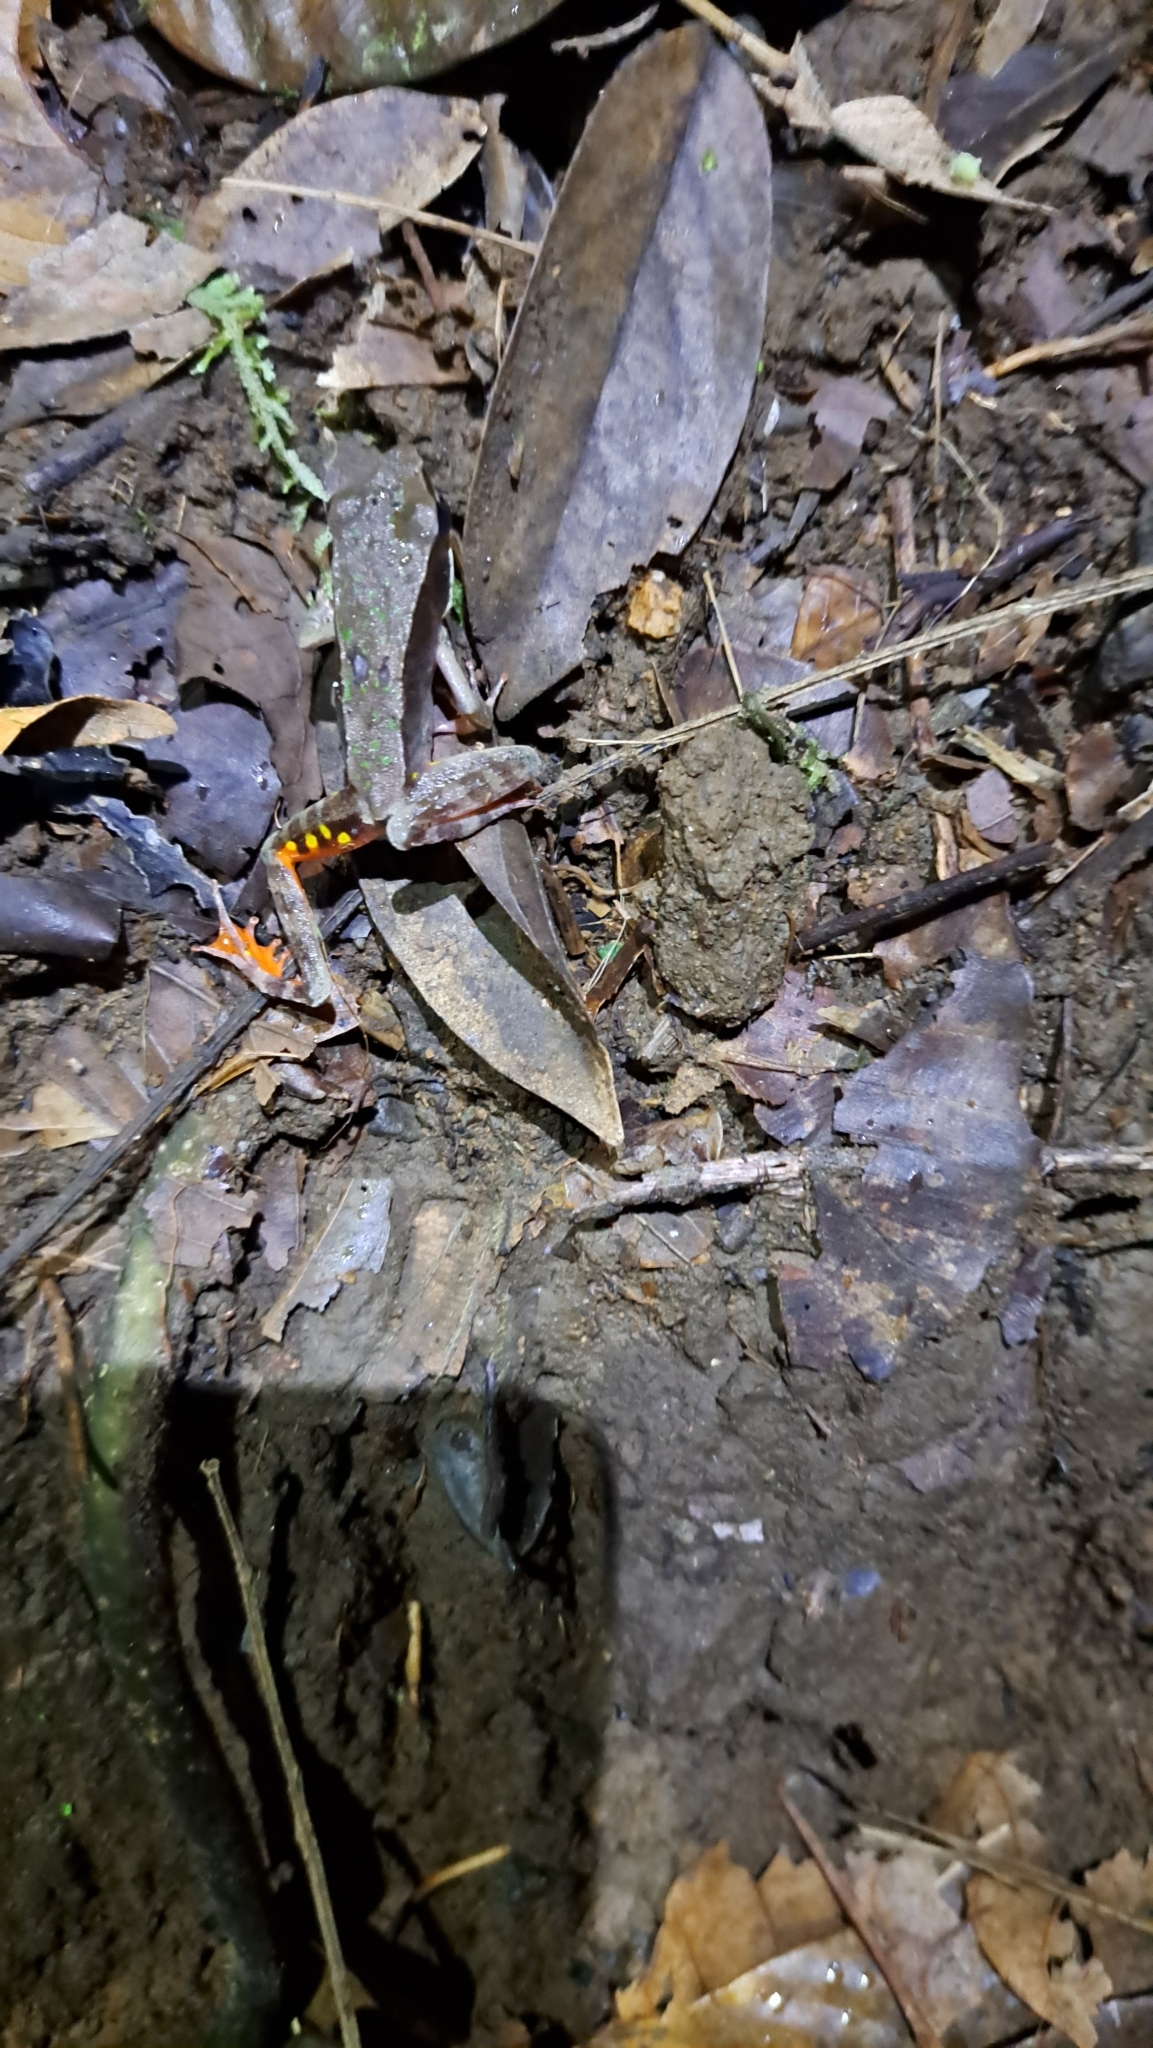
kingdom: Animalia
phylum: Chordata
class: Amphibia
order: Anura
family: Ranidae
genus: Lithobates
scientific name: Lithobates warszewitschii
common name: Warszewitsch's frog
